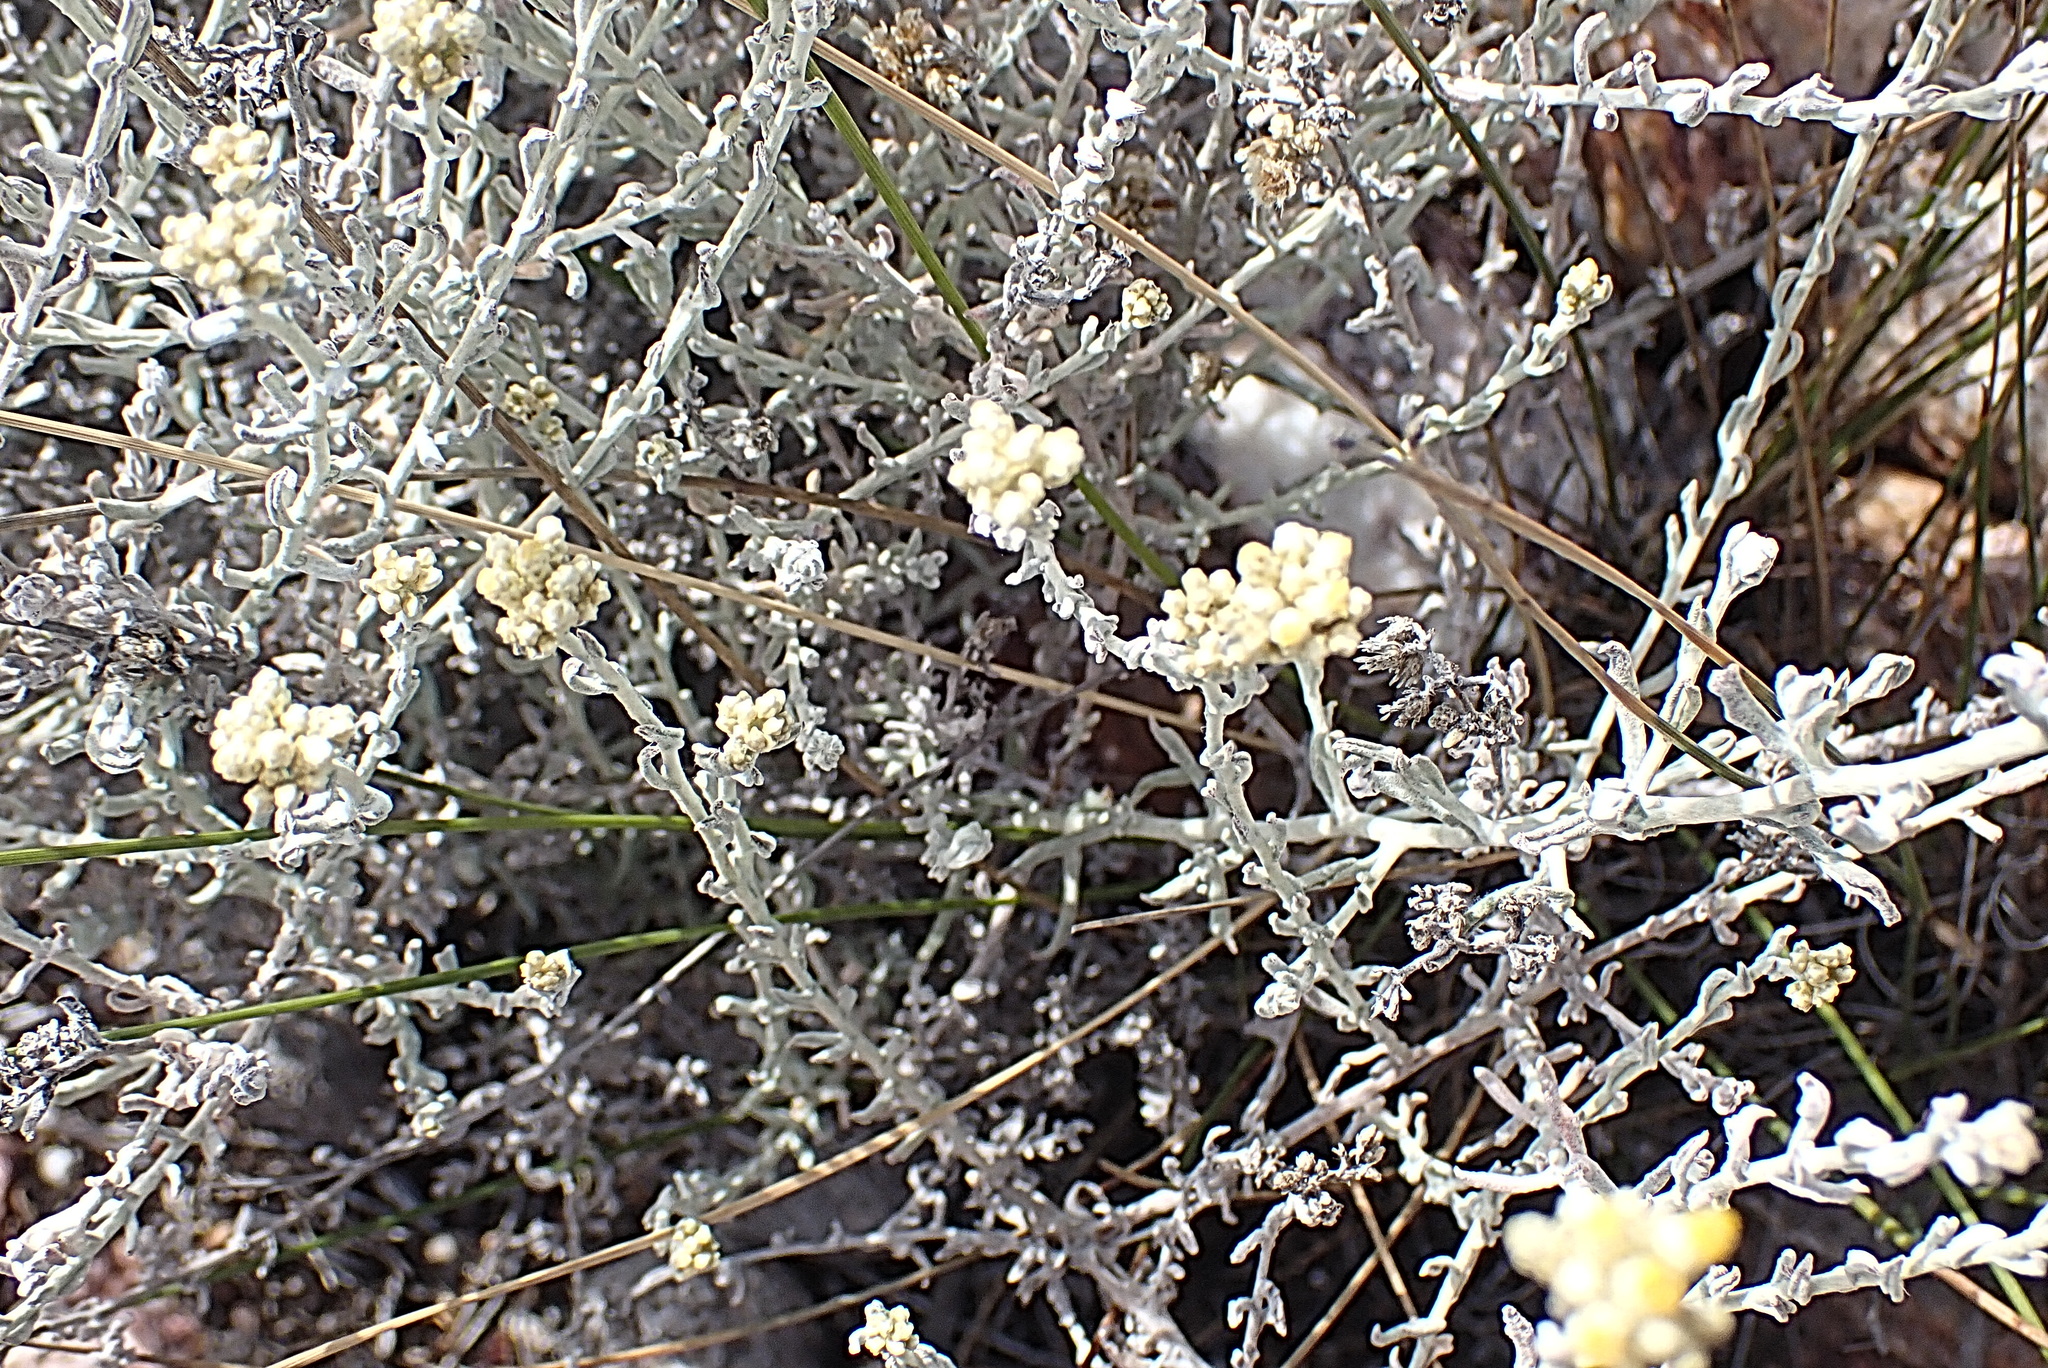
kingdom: Plantae
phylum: Tracheophyta
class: Magnoliopsida
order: Asterales
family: Asteraceae
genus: Helichrysum
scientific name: Helichrysum zeyheri
